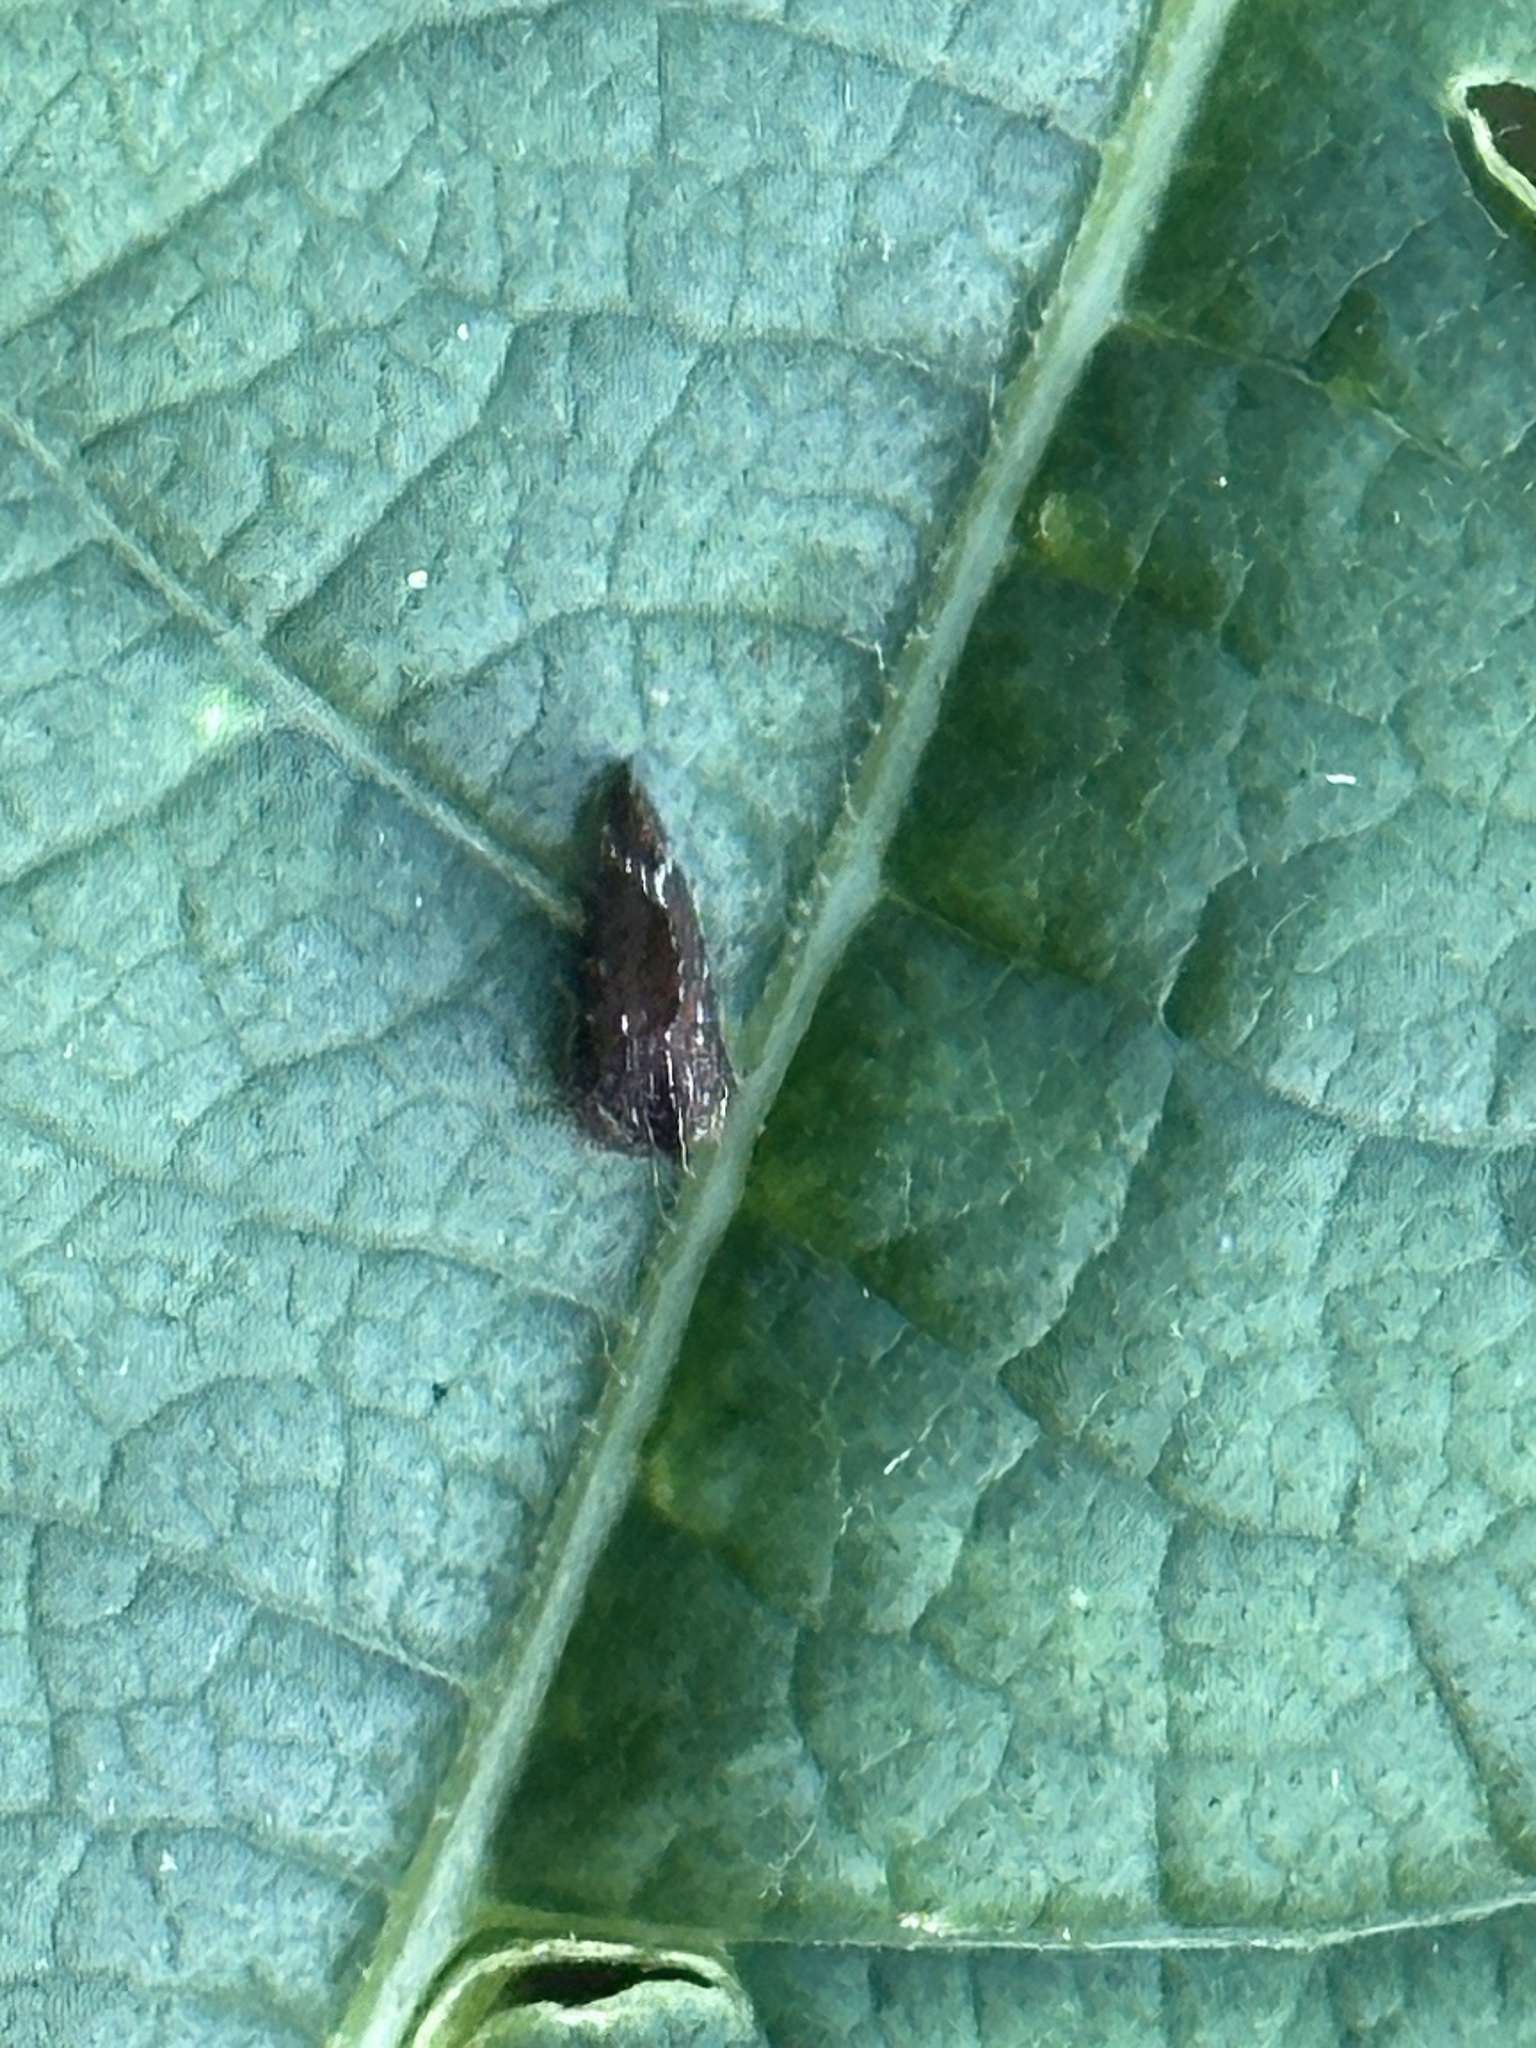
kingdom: Animalia
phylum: Arthropoda
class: Insecta
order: Hemiptera
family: Membracidae
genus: Entylia
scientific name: Entylia carinata
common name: Keeled treehopper
